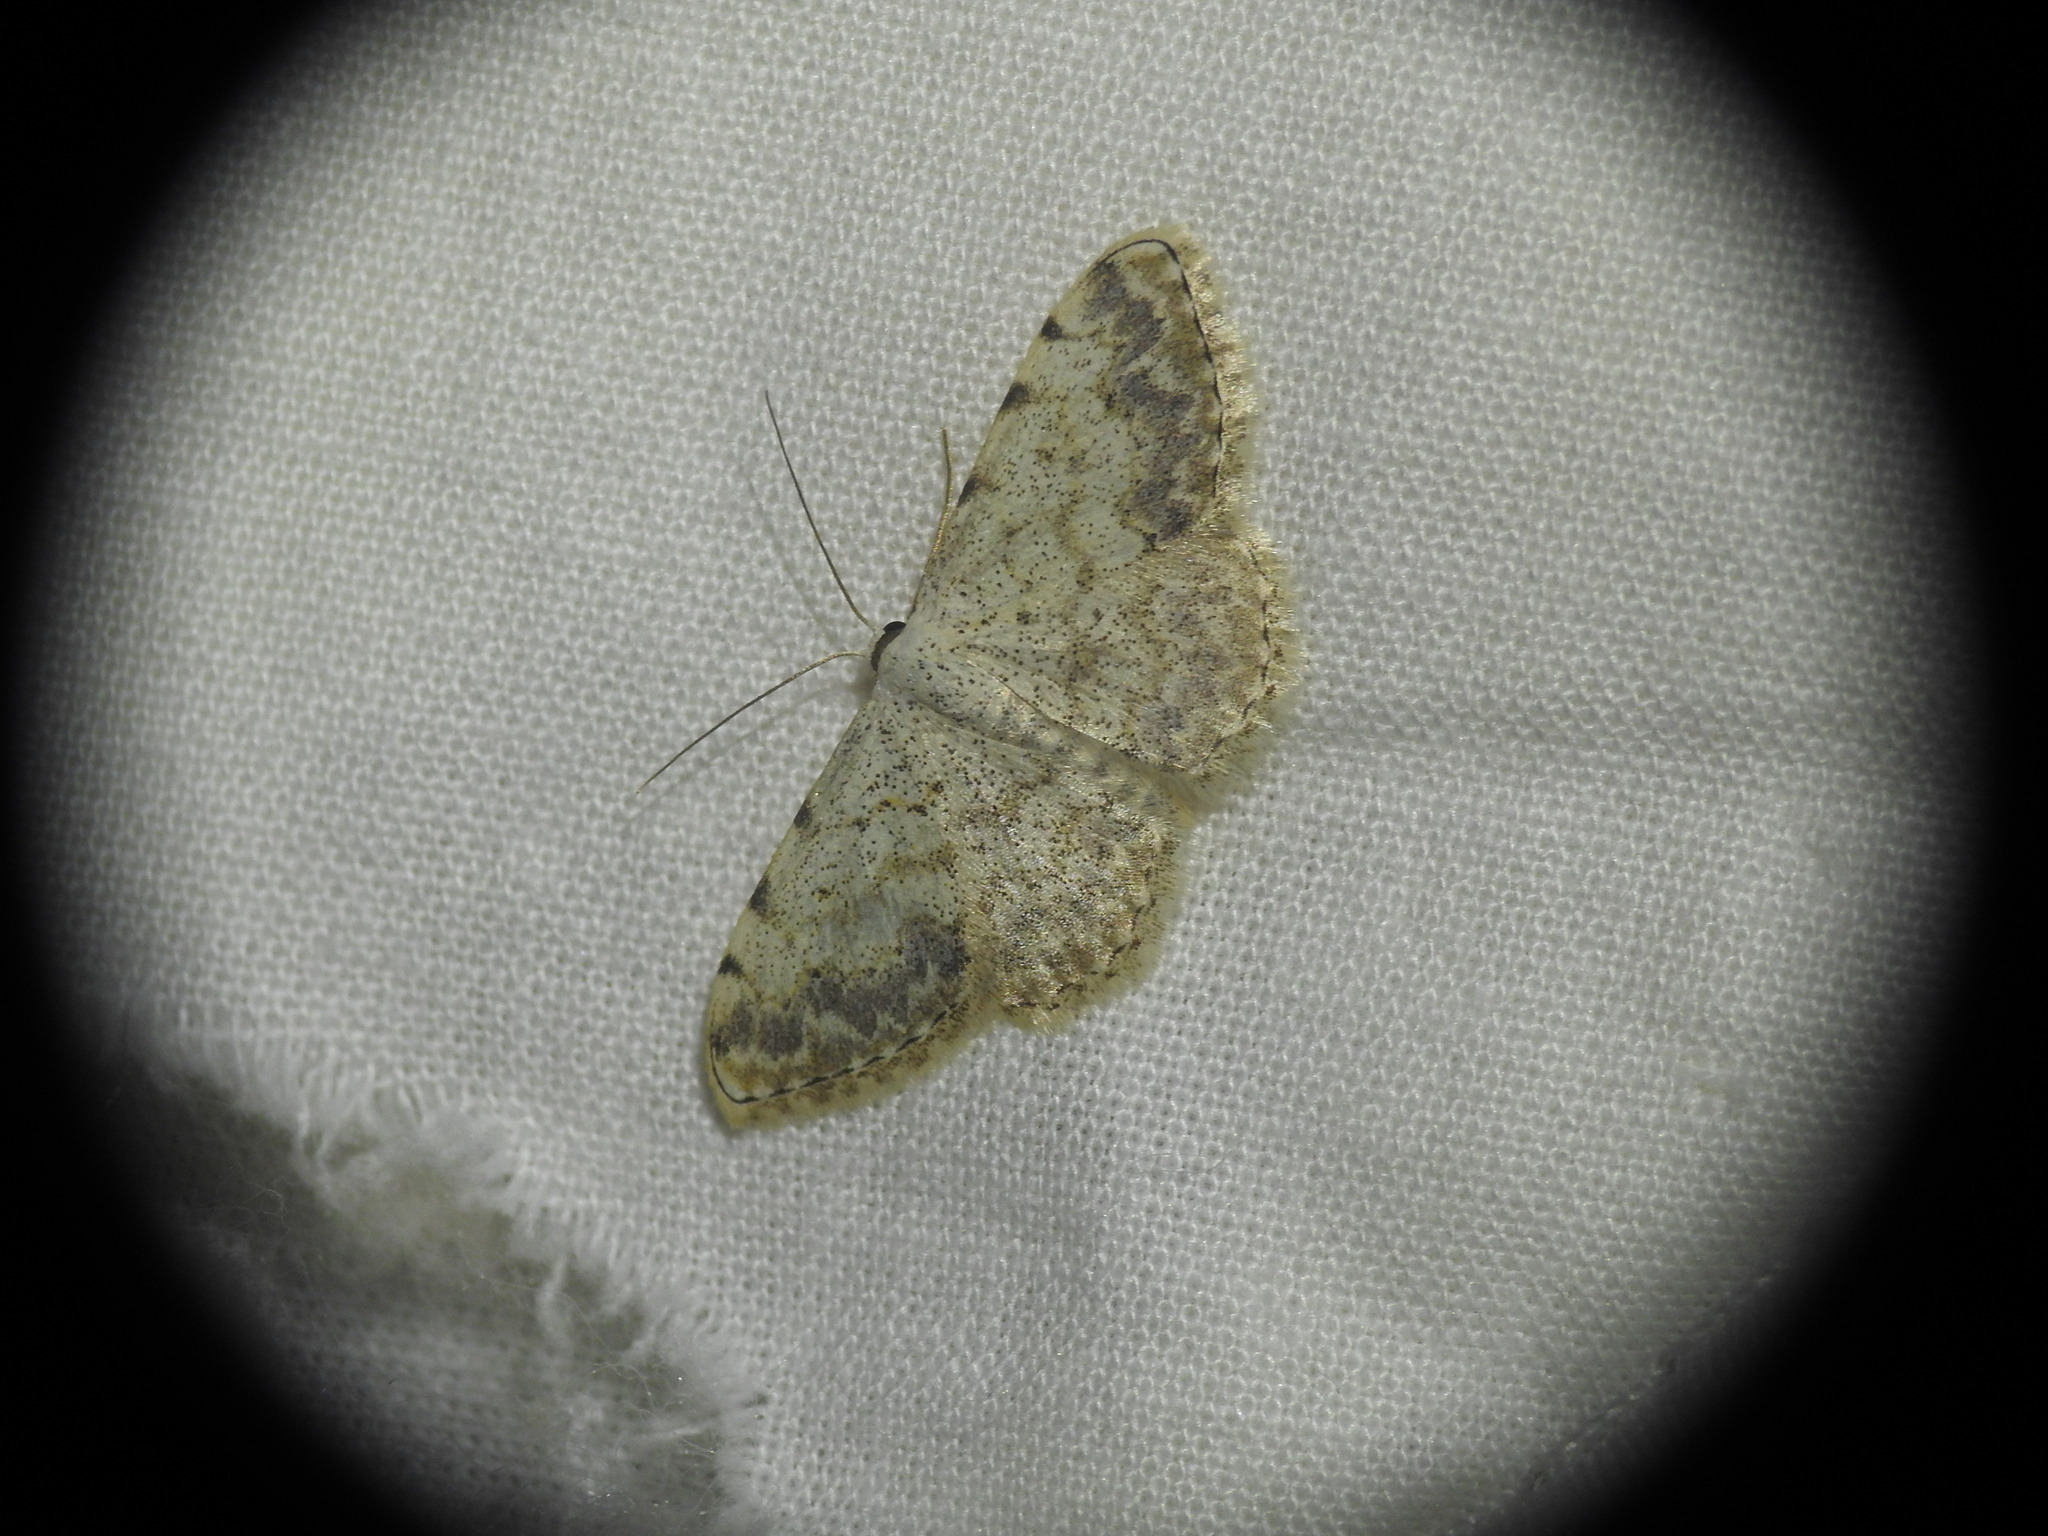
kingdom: Animalia
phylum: Arthropoda
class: Insecta
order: Lepidoptera
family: Geometridae
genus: Scopula
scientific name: Scopula submutata
